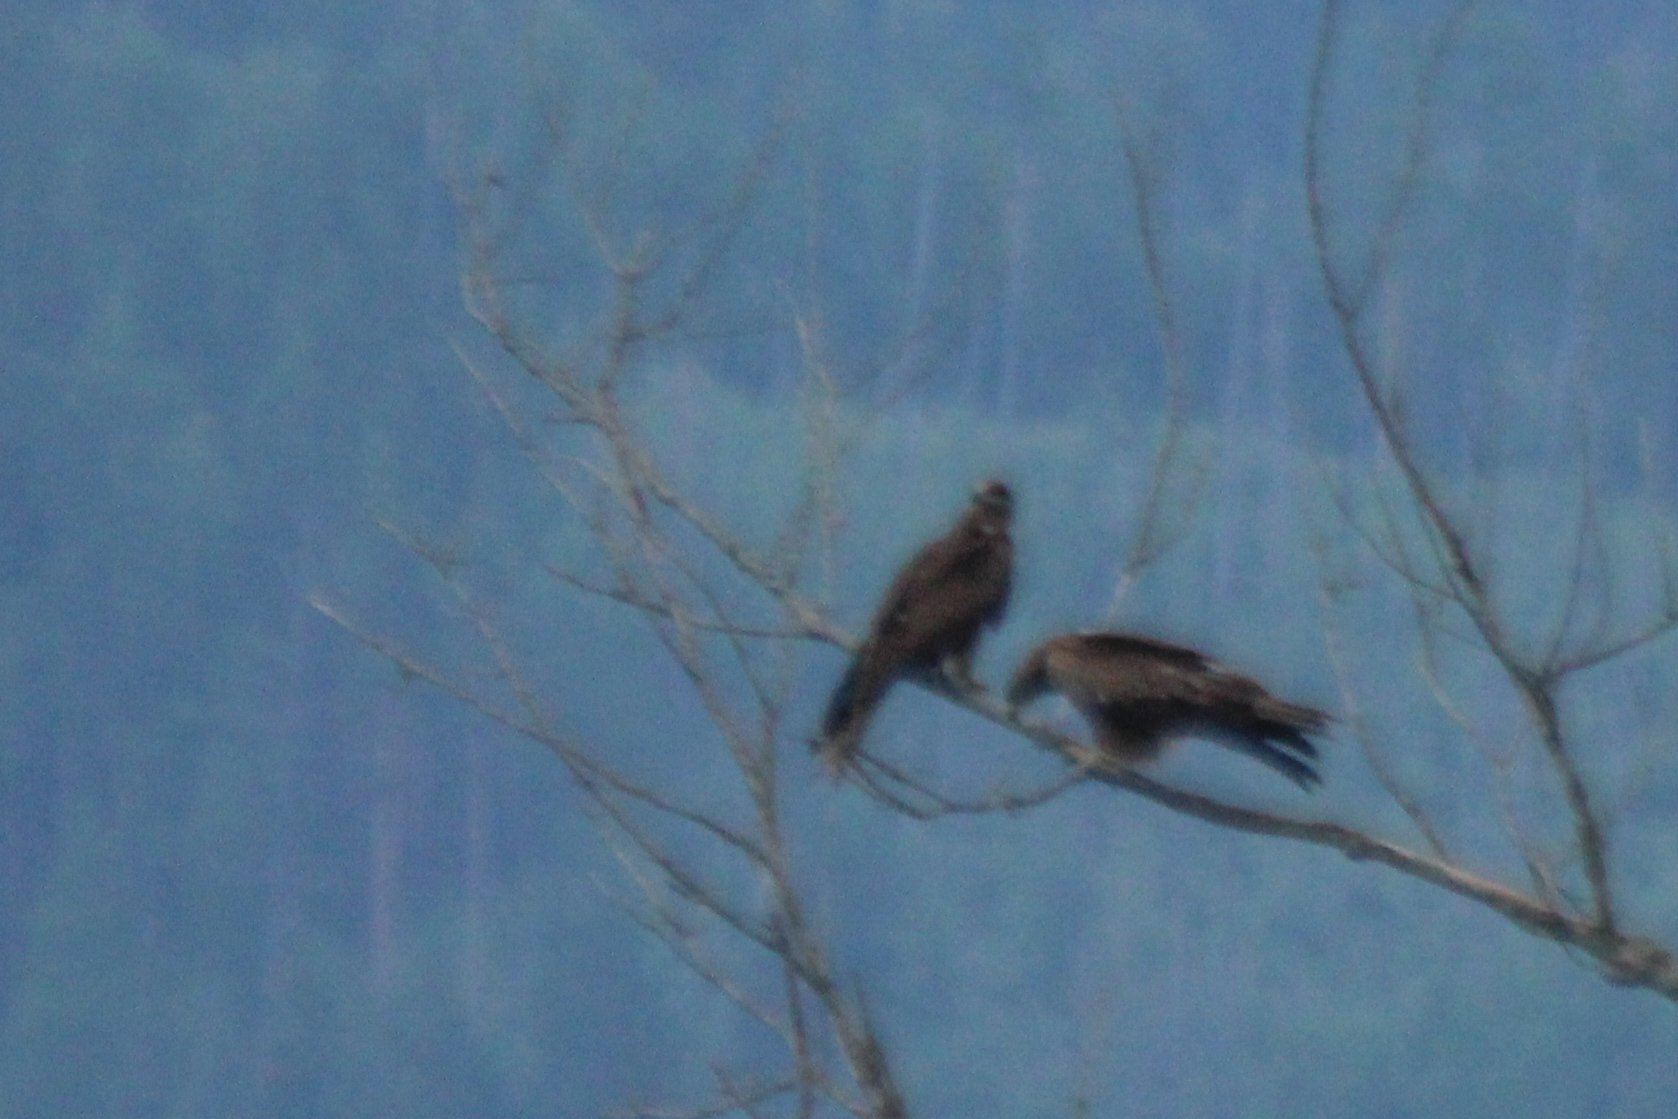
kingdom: Animalia
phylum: Chordata
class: Aves
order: Accipitriformes
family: Accipitridae
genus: Milvus
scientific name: Milvus migrans
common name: Black kite
